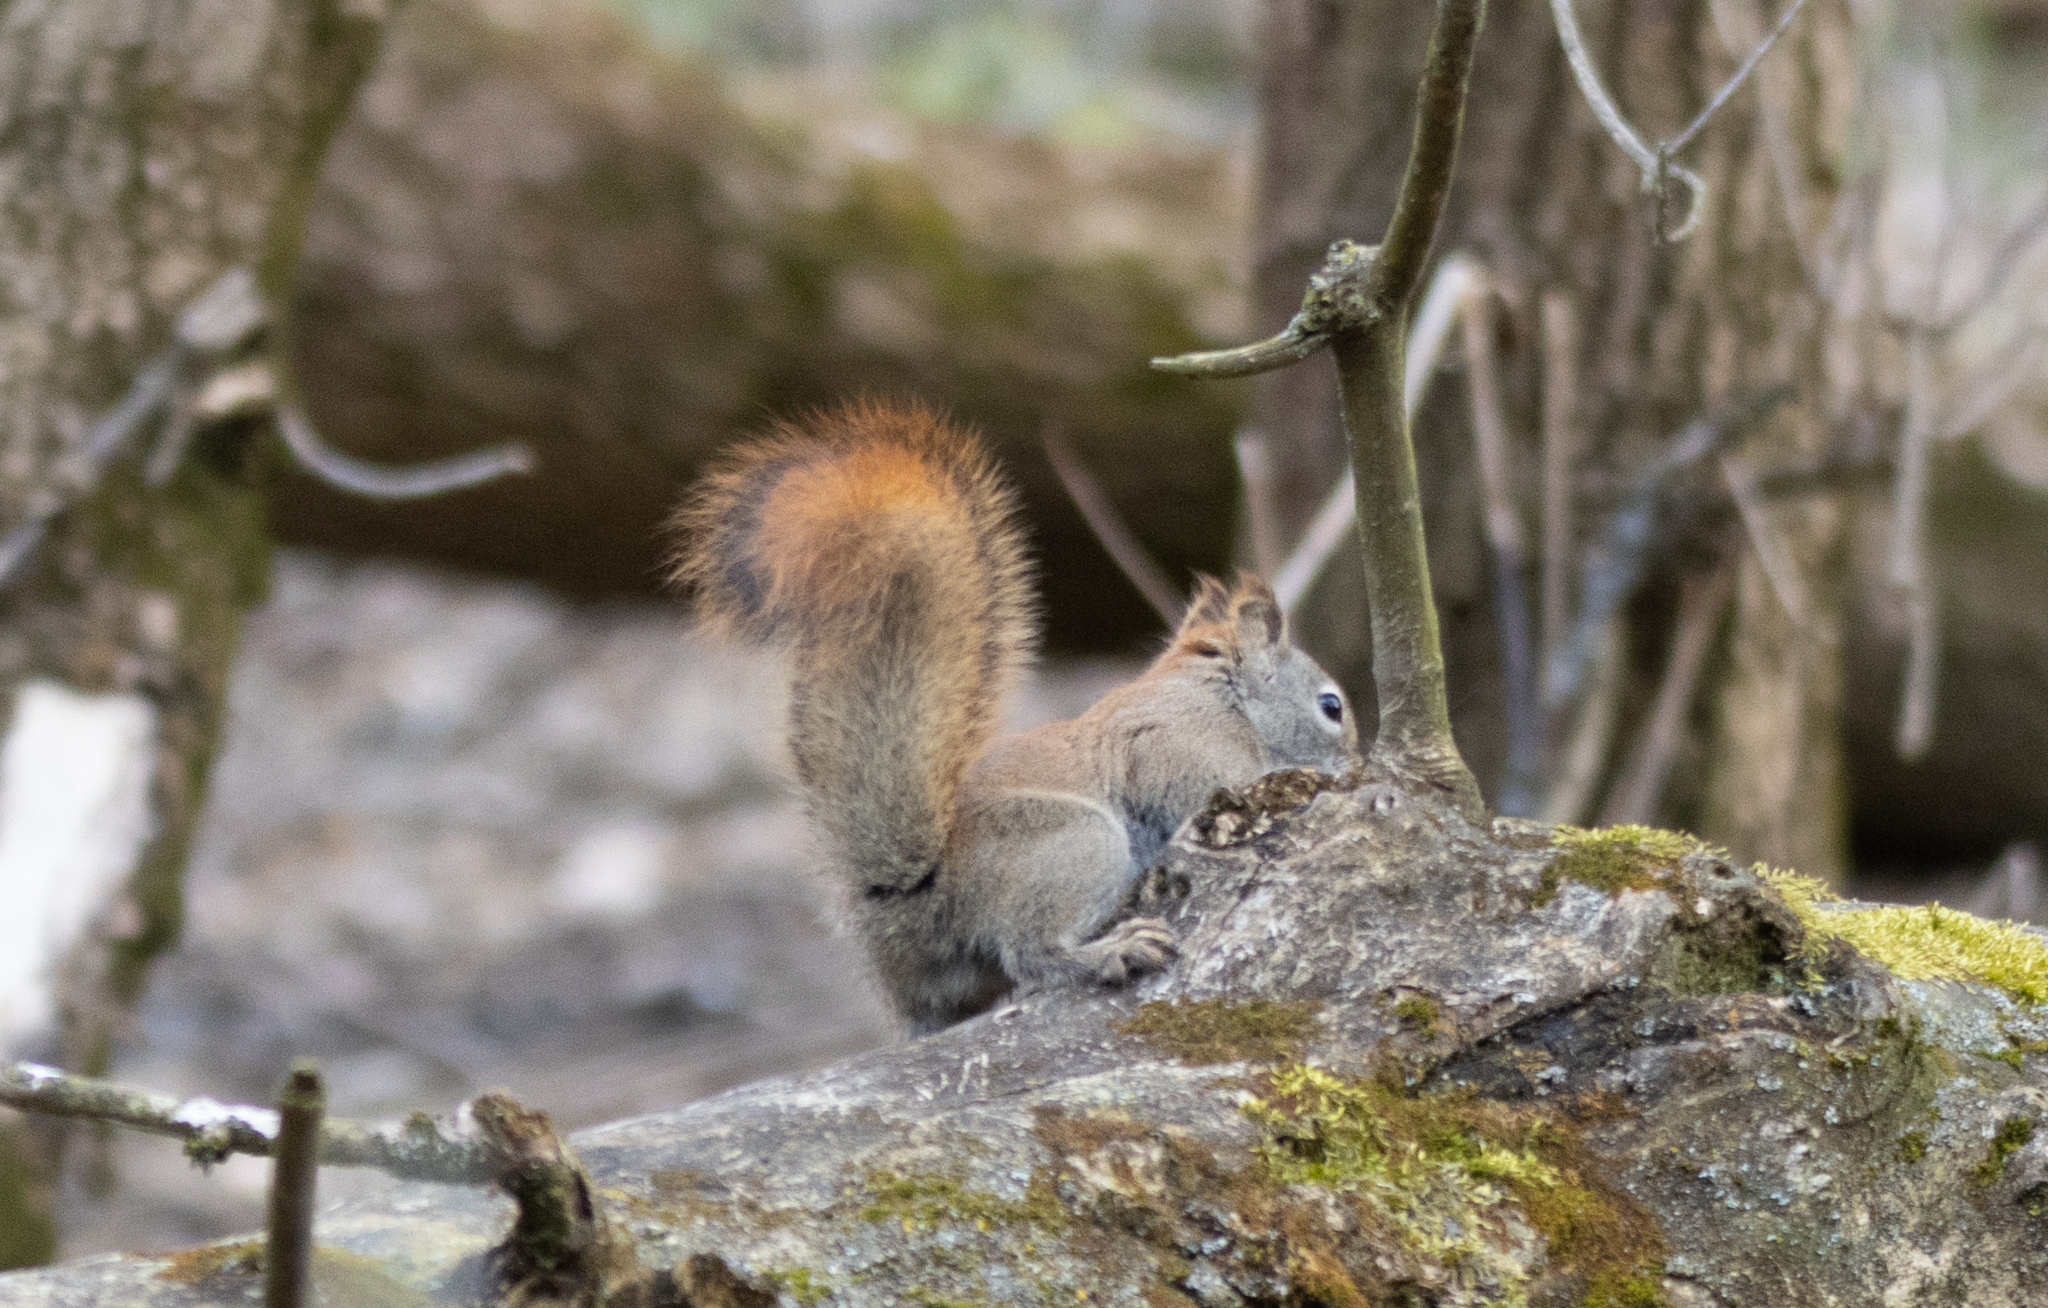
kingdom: Animalia
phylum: Chordata
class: Mammalia
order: Rodentia
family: Sciuridae
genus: Tamiasciurus
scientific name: Tamiasciurus hudsonicus
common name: Red squirrel
